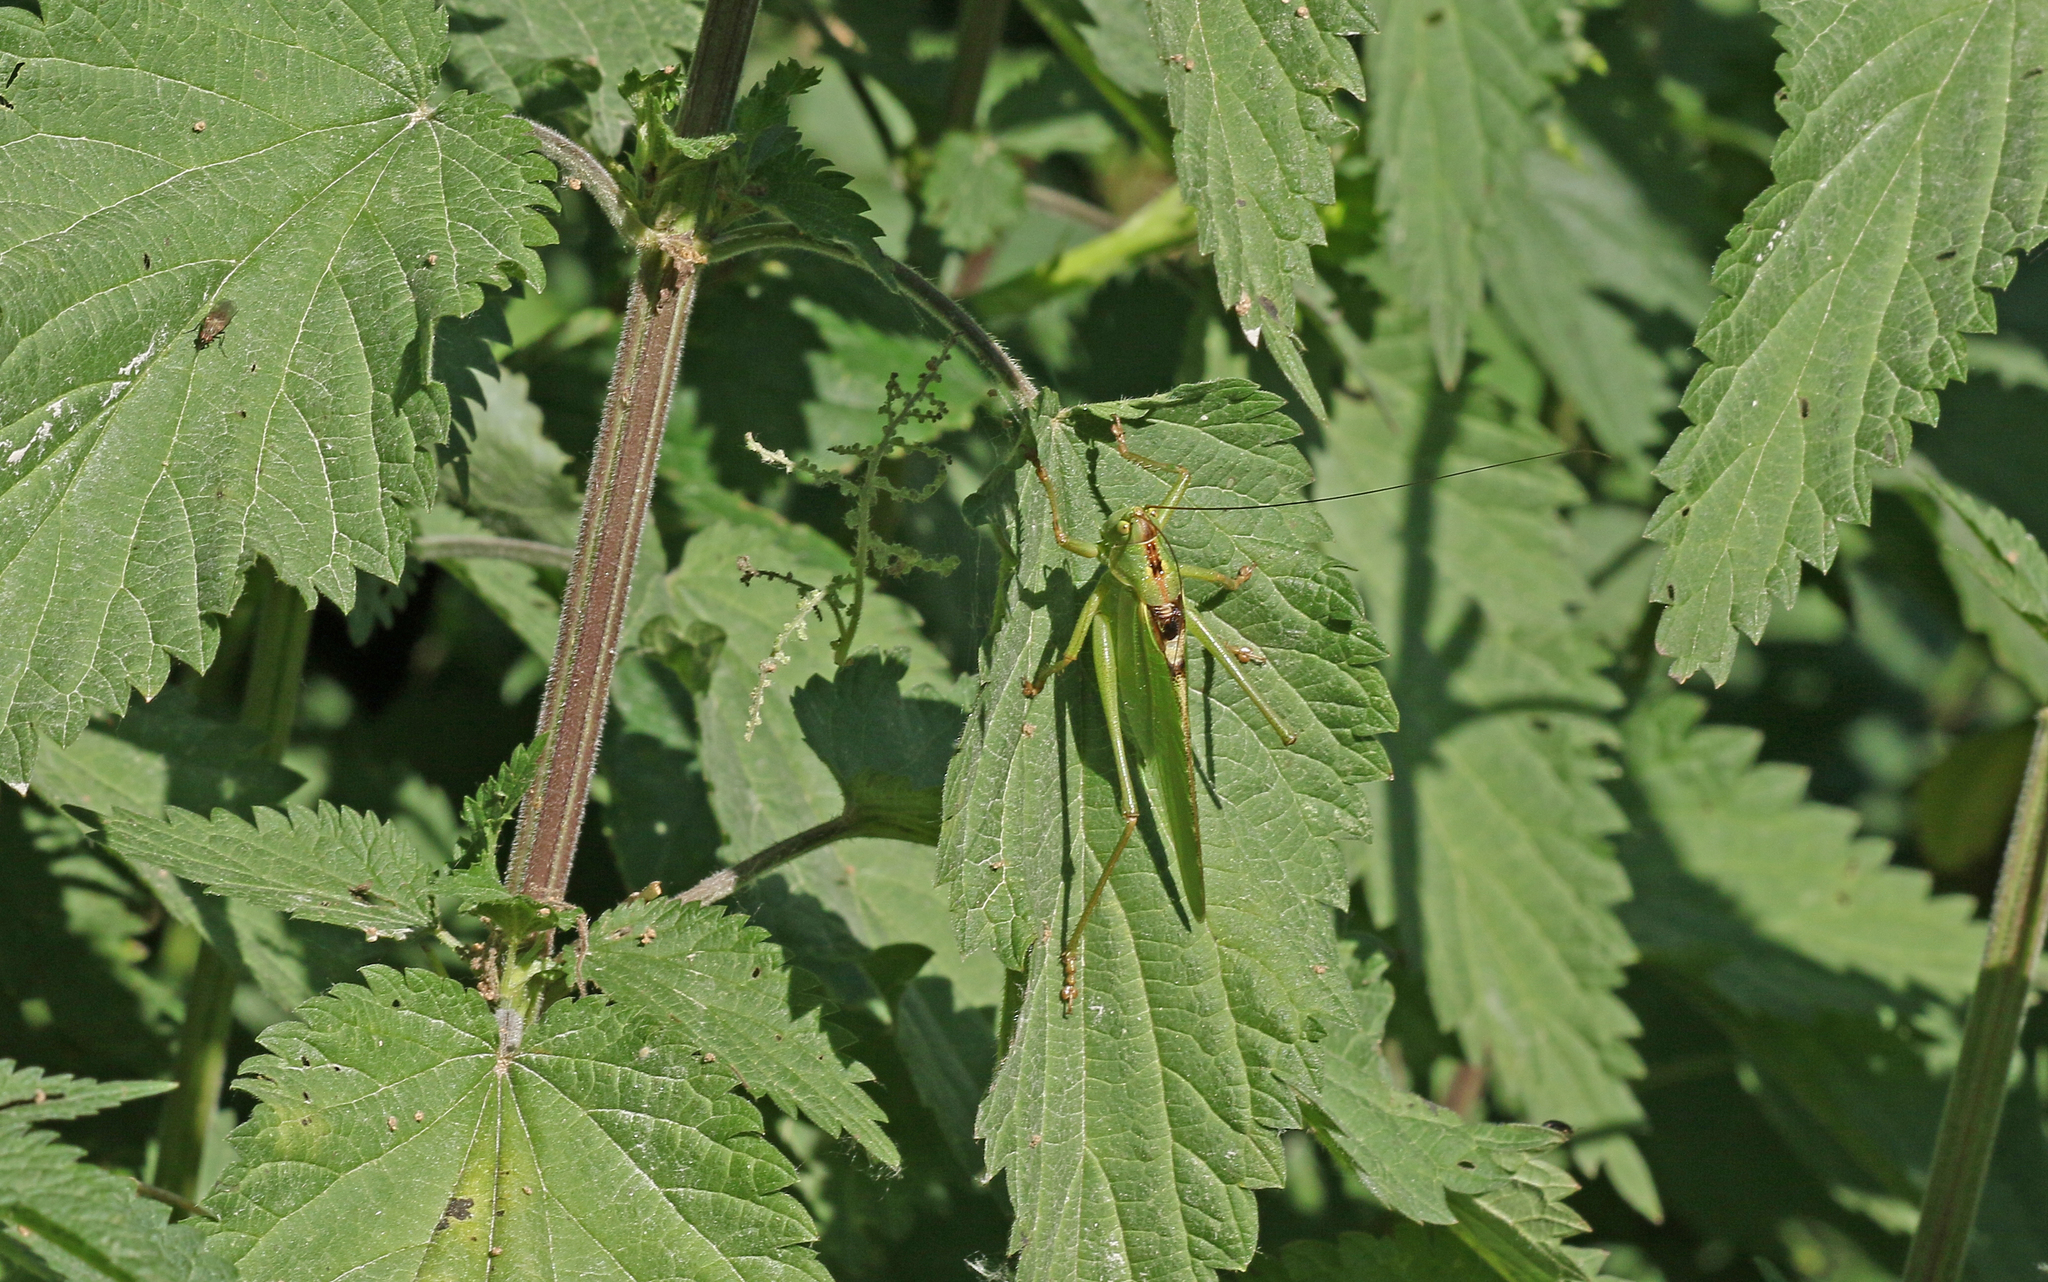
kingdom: Animalia
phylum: Arthropoda
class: Insecta
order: Orthoptera
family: Tettigoniidae
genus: Tettigonia
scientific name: Tettigonia viridissima
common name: Great green bush-cricket
